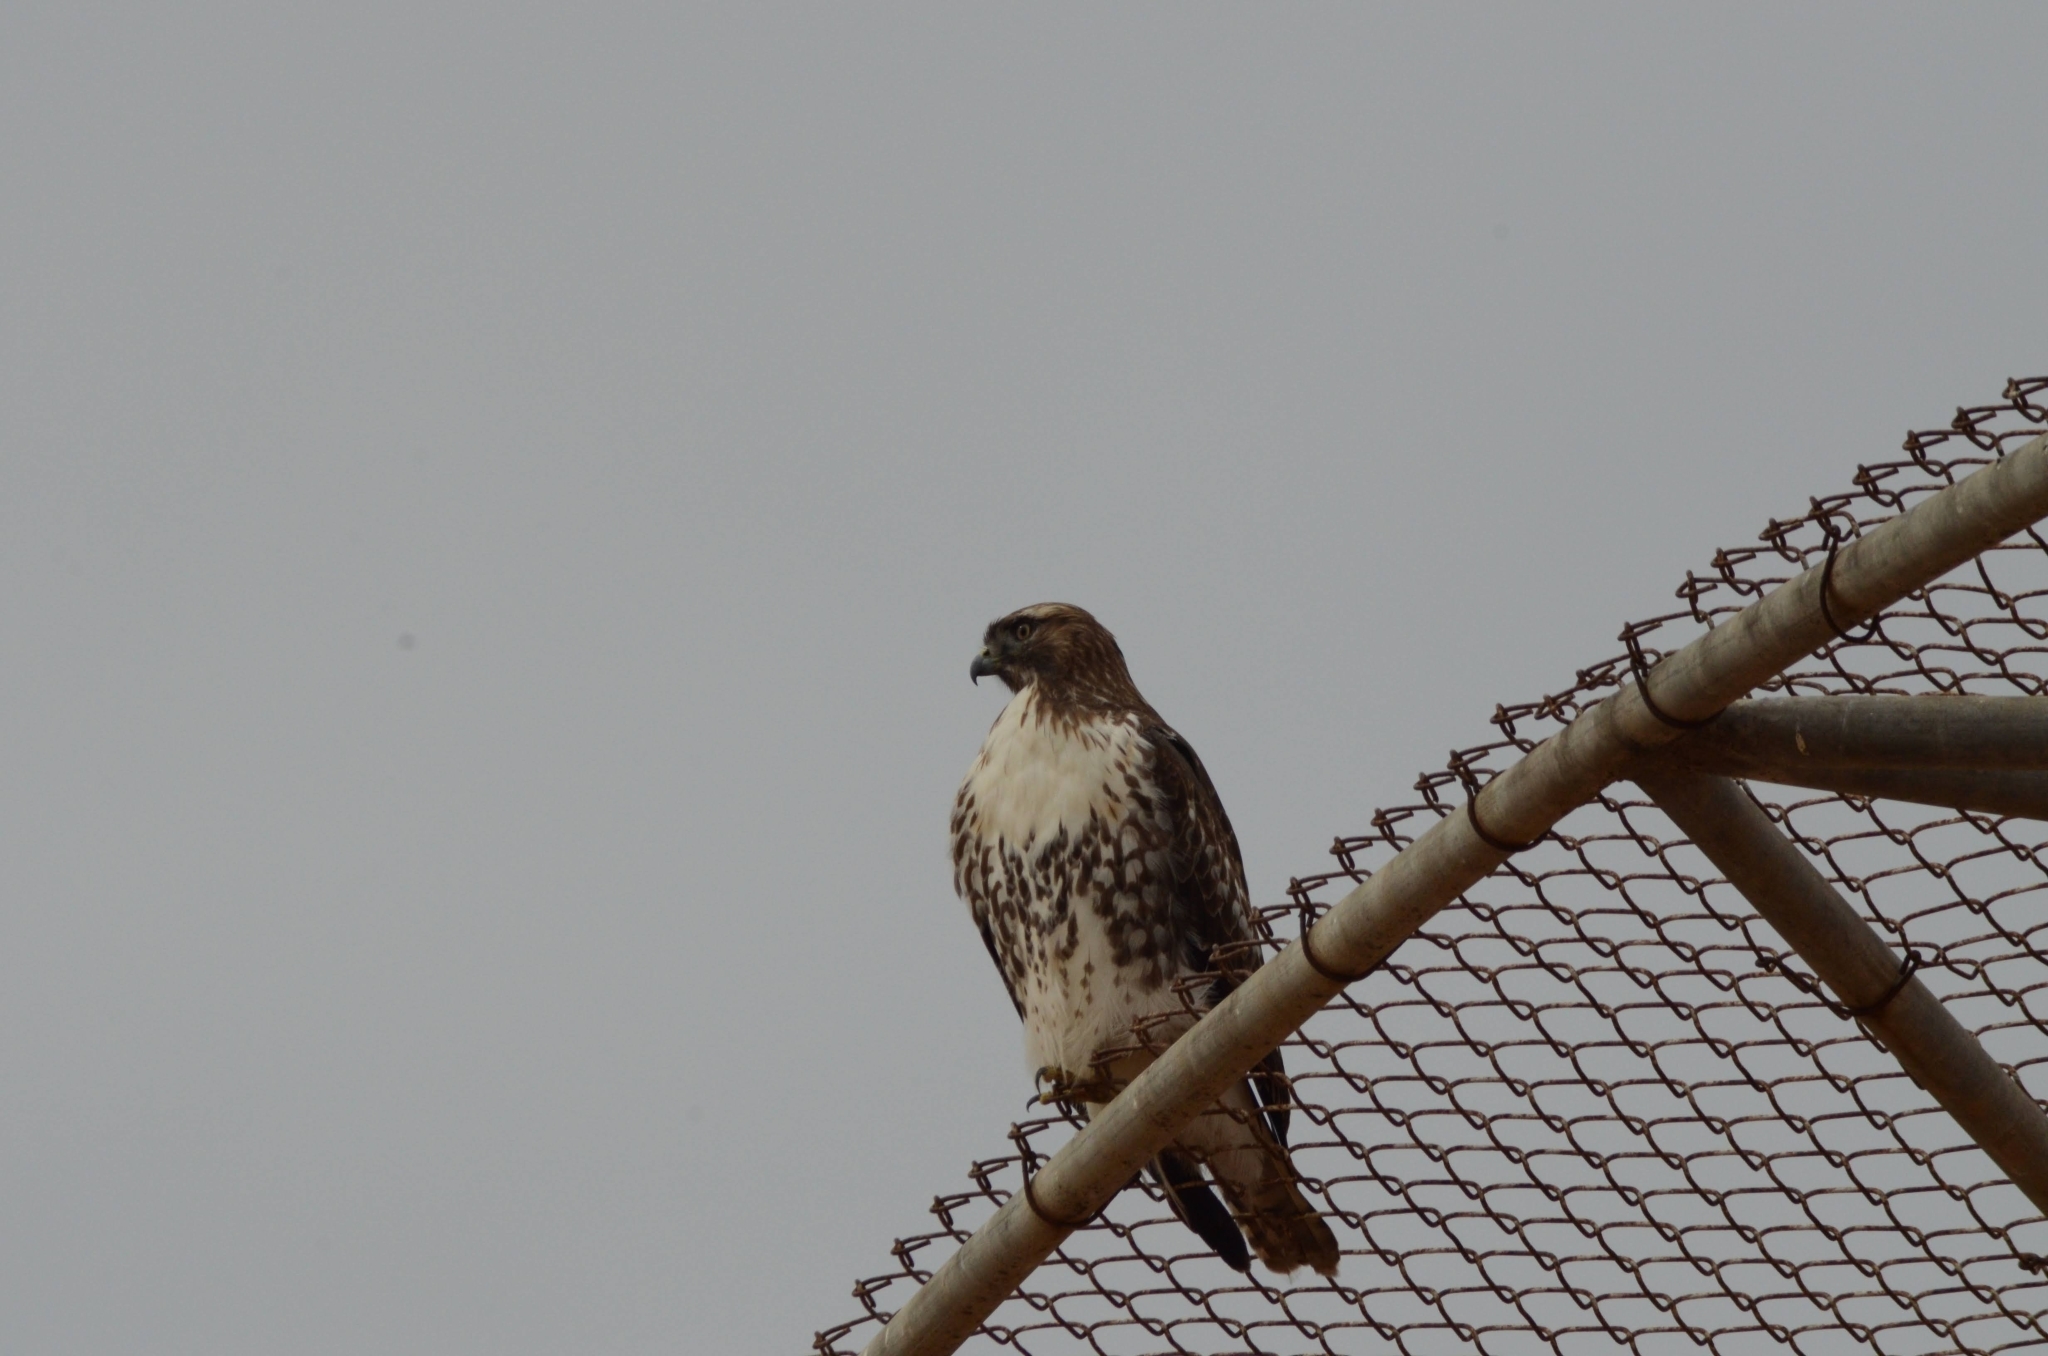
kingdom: Animalia
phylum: Chordata
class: Aves
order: Accipitriformes
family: Accipitridae
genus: Buteo
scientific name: Buteo jamaicensis
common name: Red-tailed hawk
